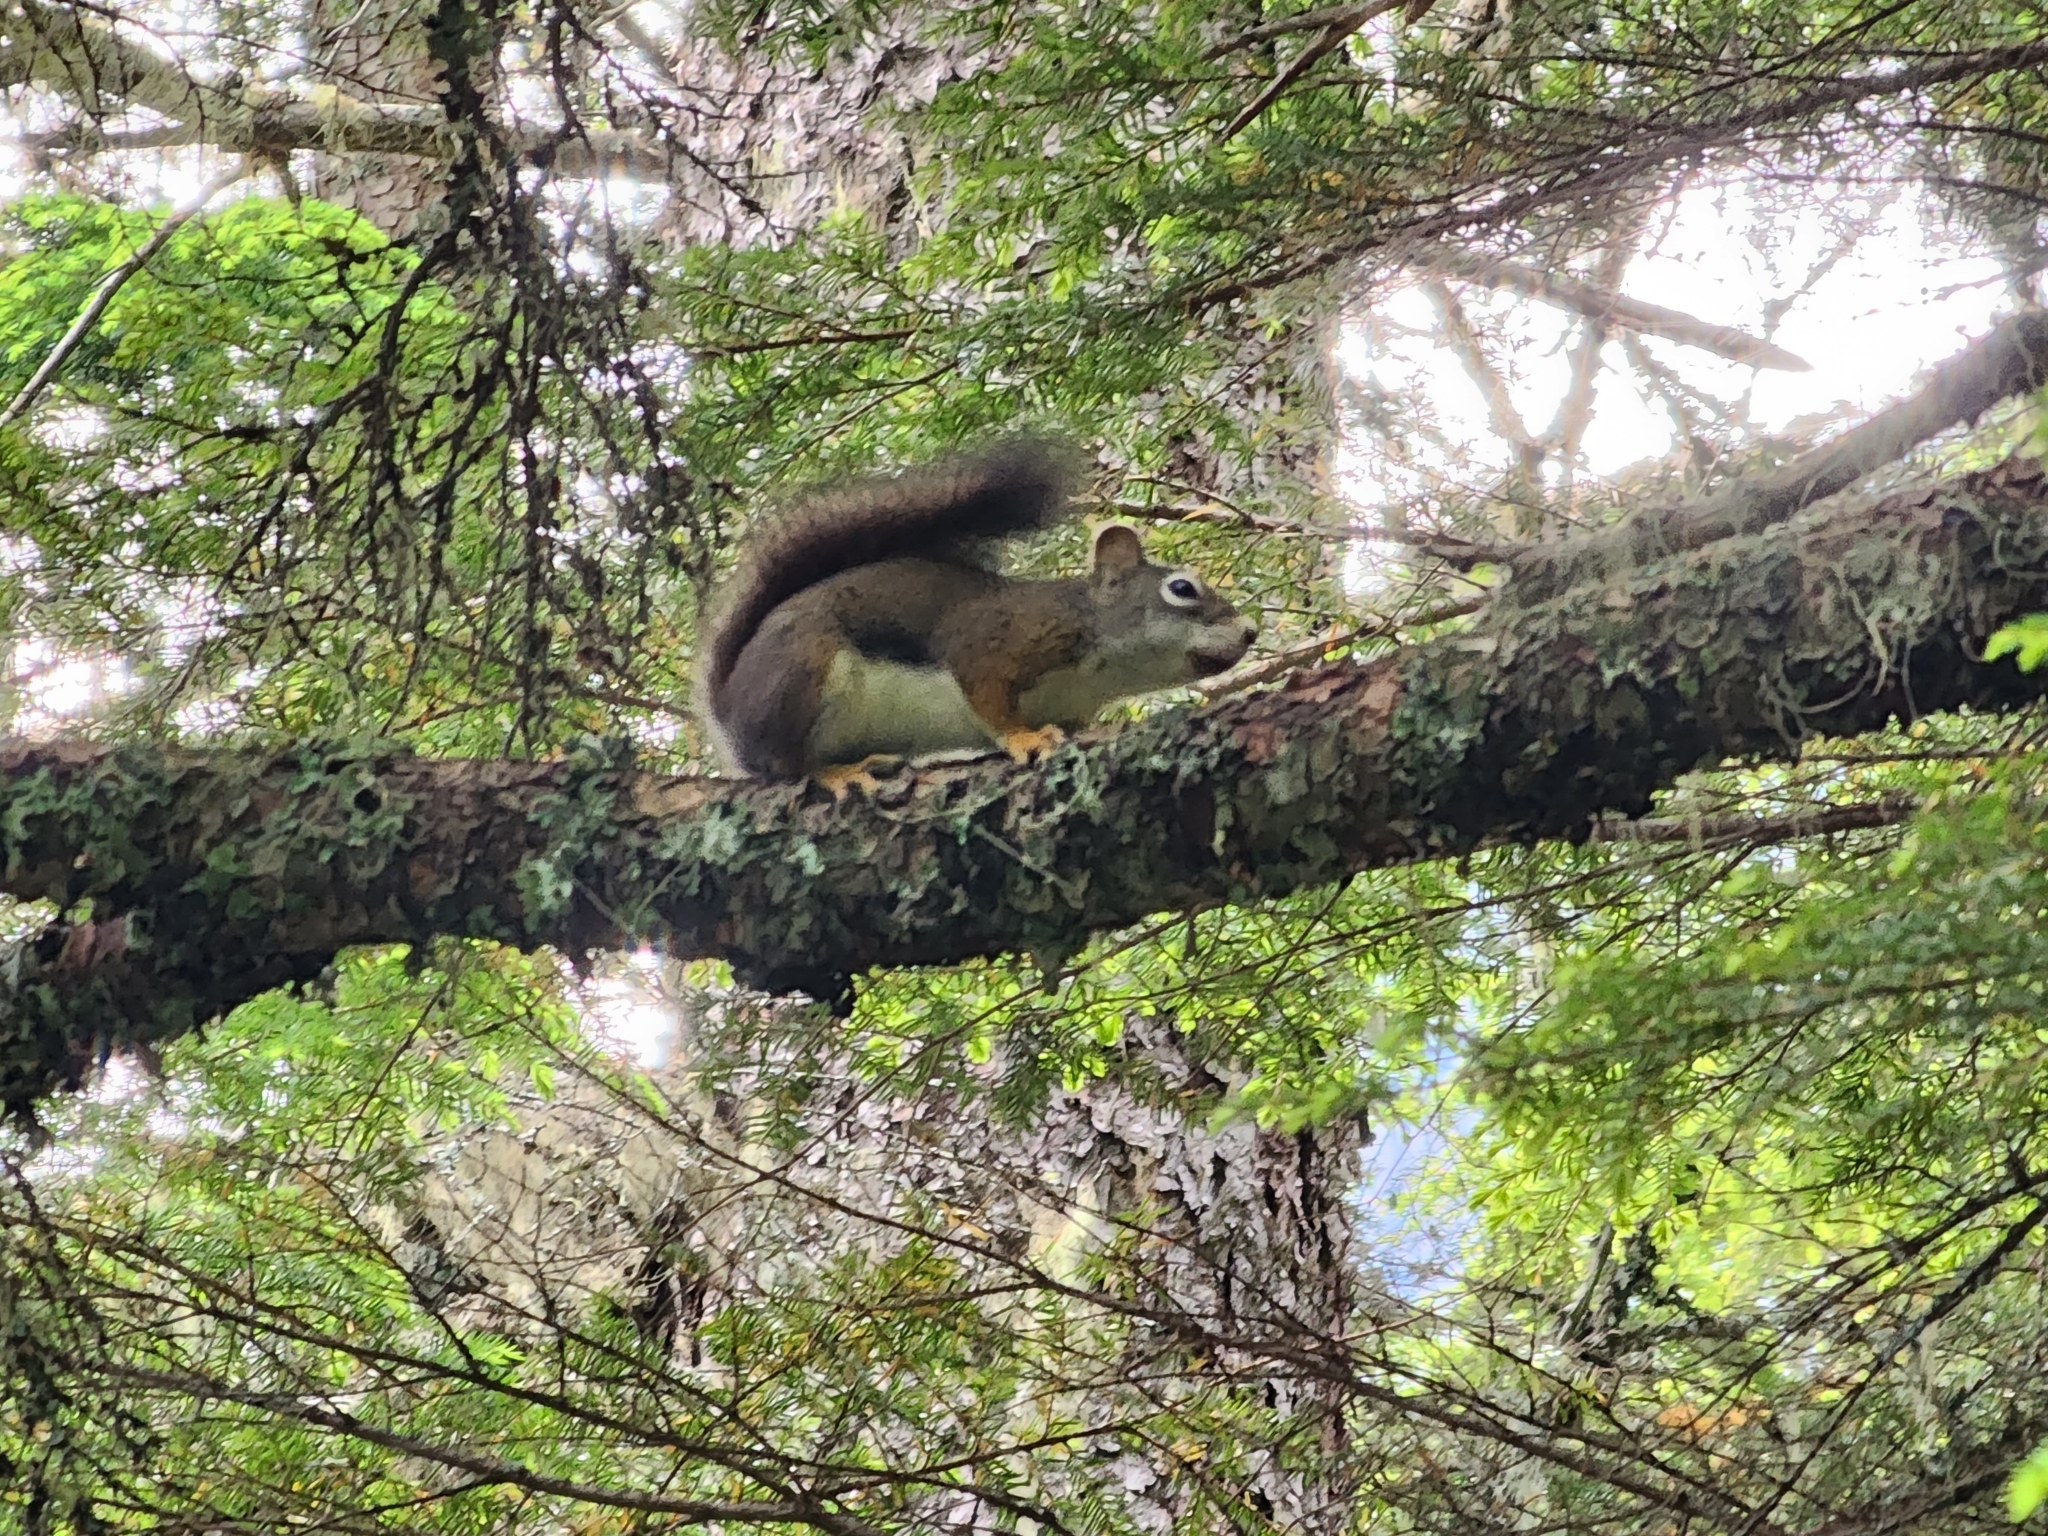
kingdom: Animalia
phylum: Chordata
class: Mammalia
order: Rodentia
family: Sciuridae
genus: Tamiasciurus
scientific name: Tamiasciurus hudsonicus
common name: Red squirrel
